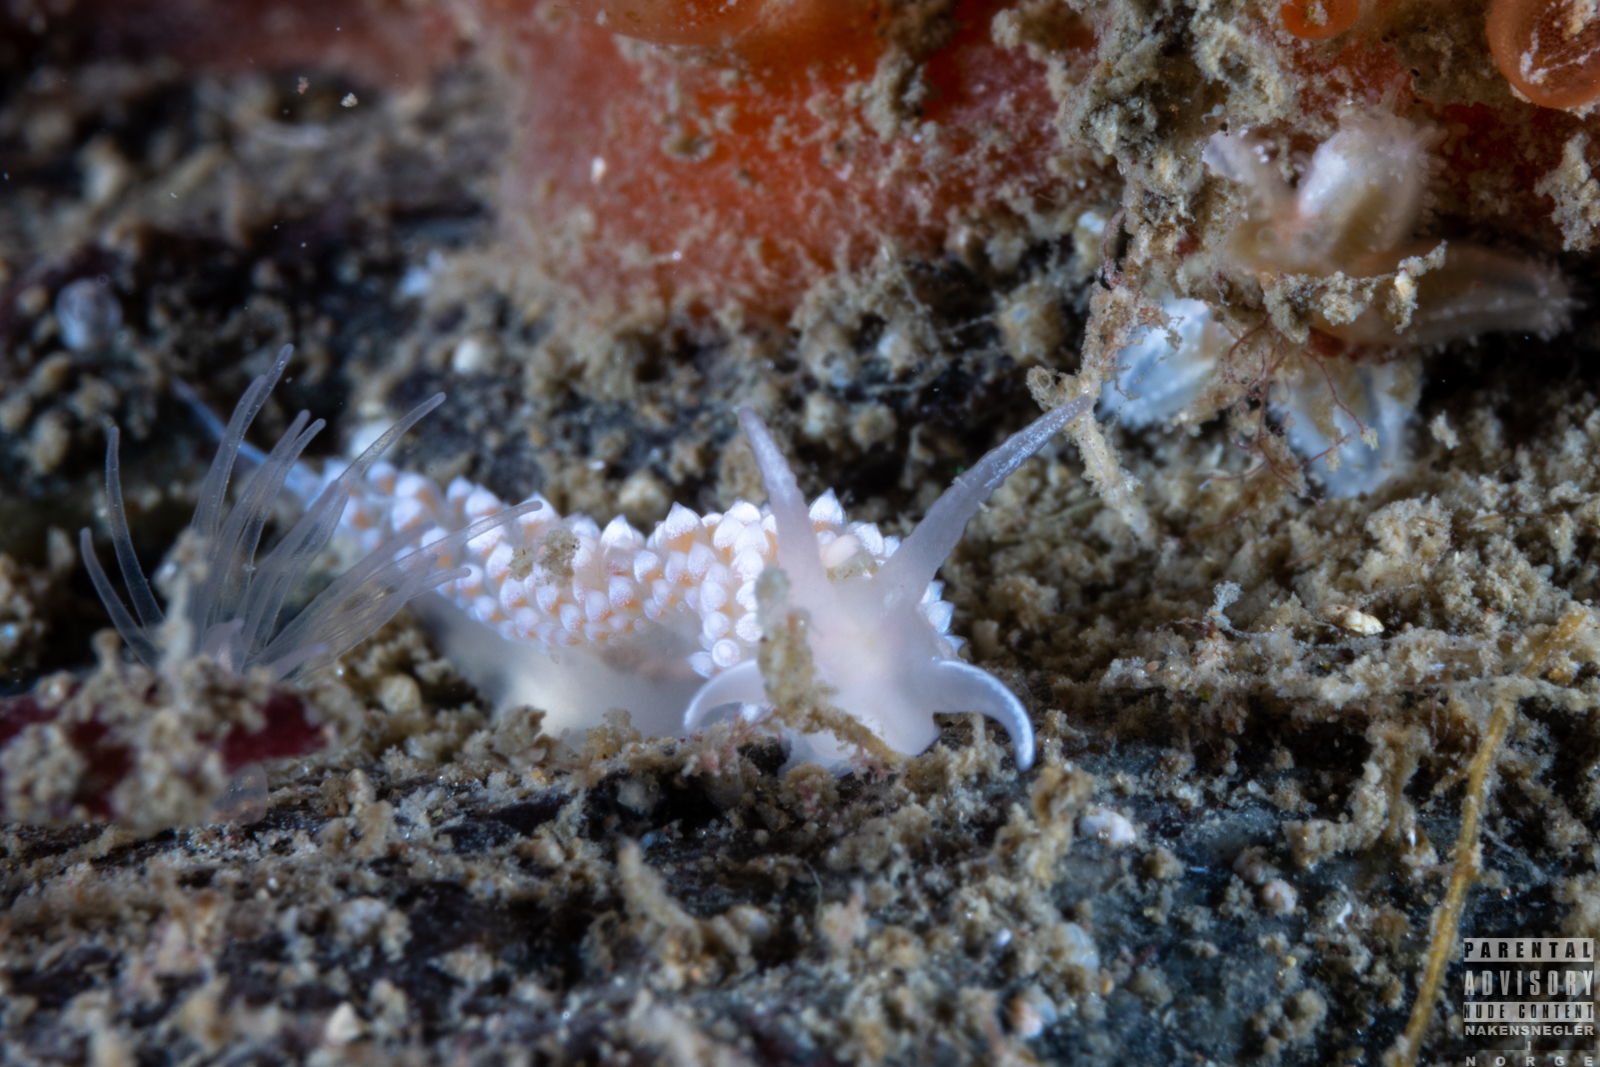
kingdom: Animalia
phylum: Mollusca
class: Gastropoda
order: Nudibranchia
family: Coryphellidae
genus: Coryphella
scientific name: Coryphella verrucosa
